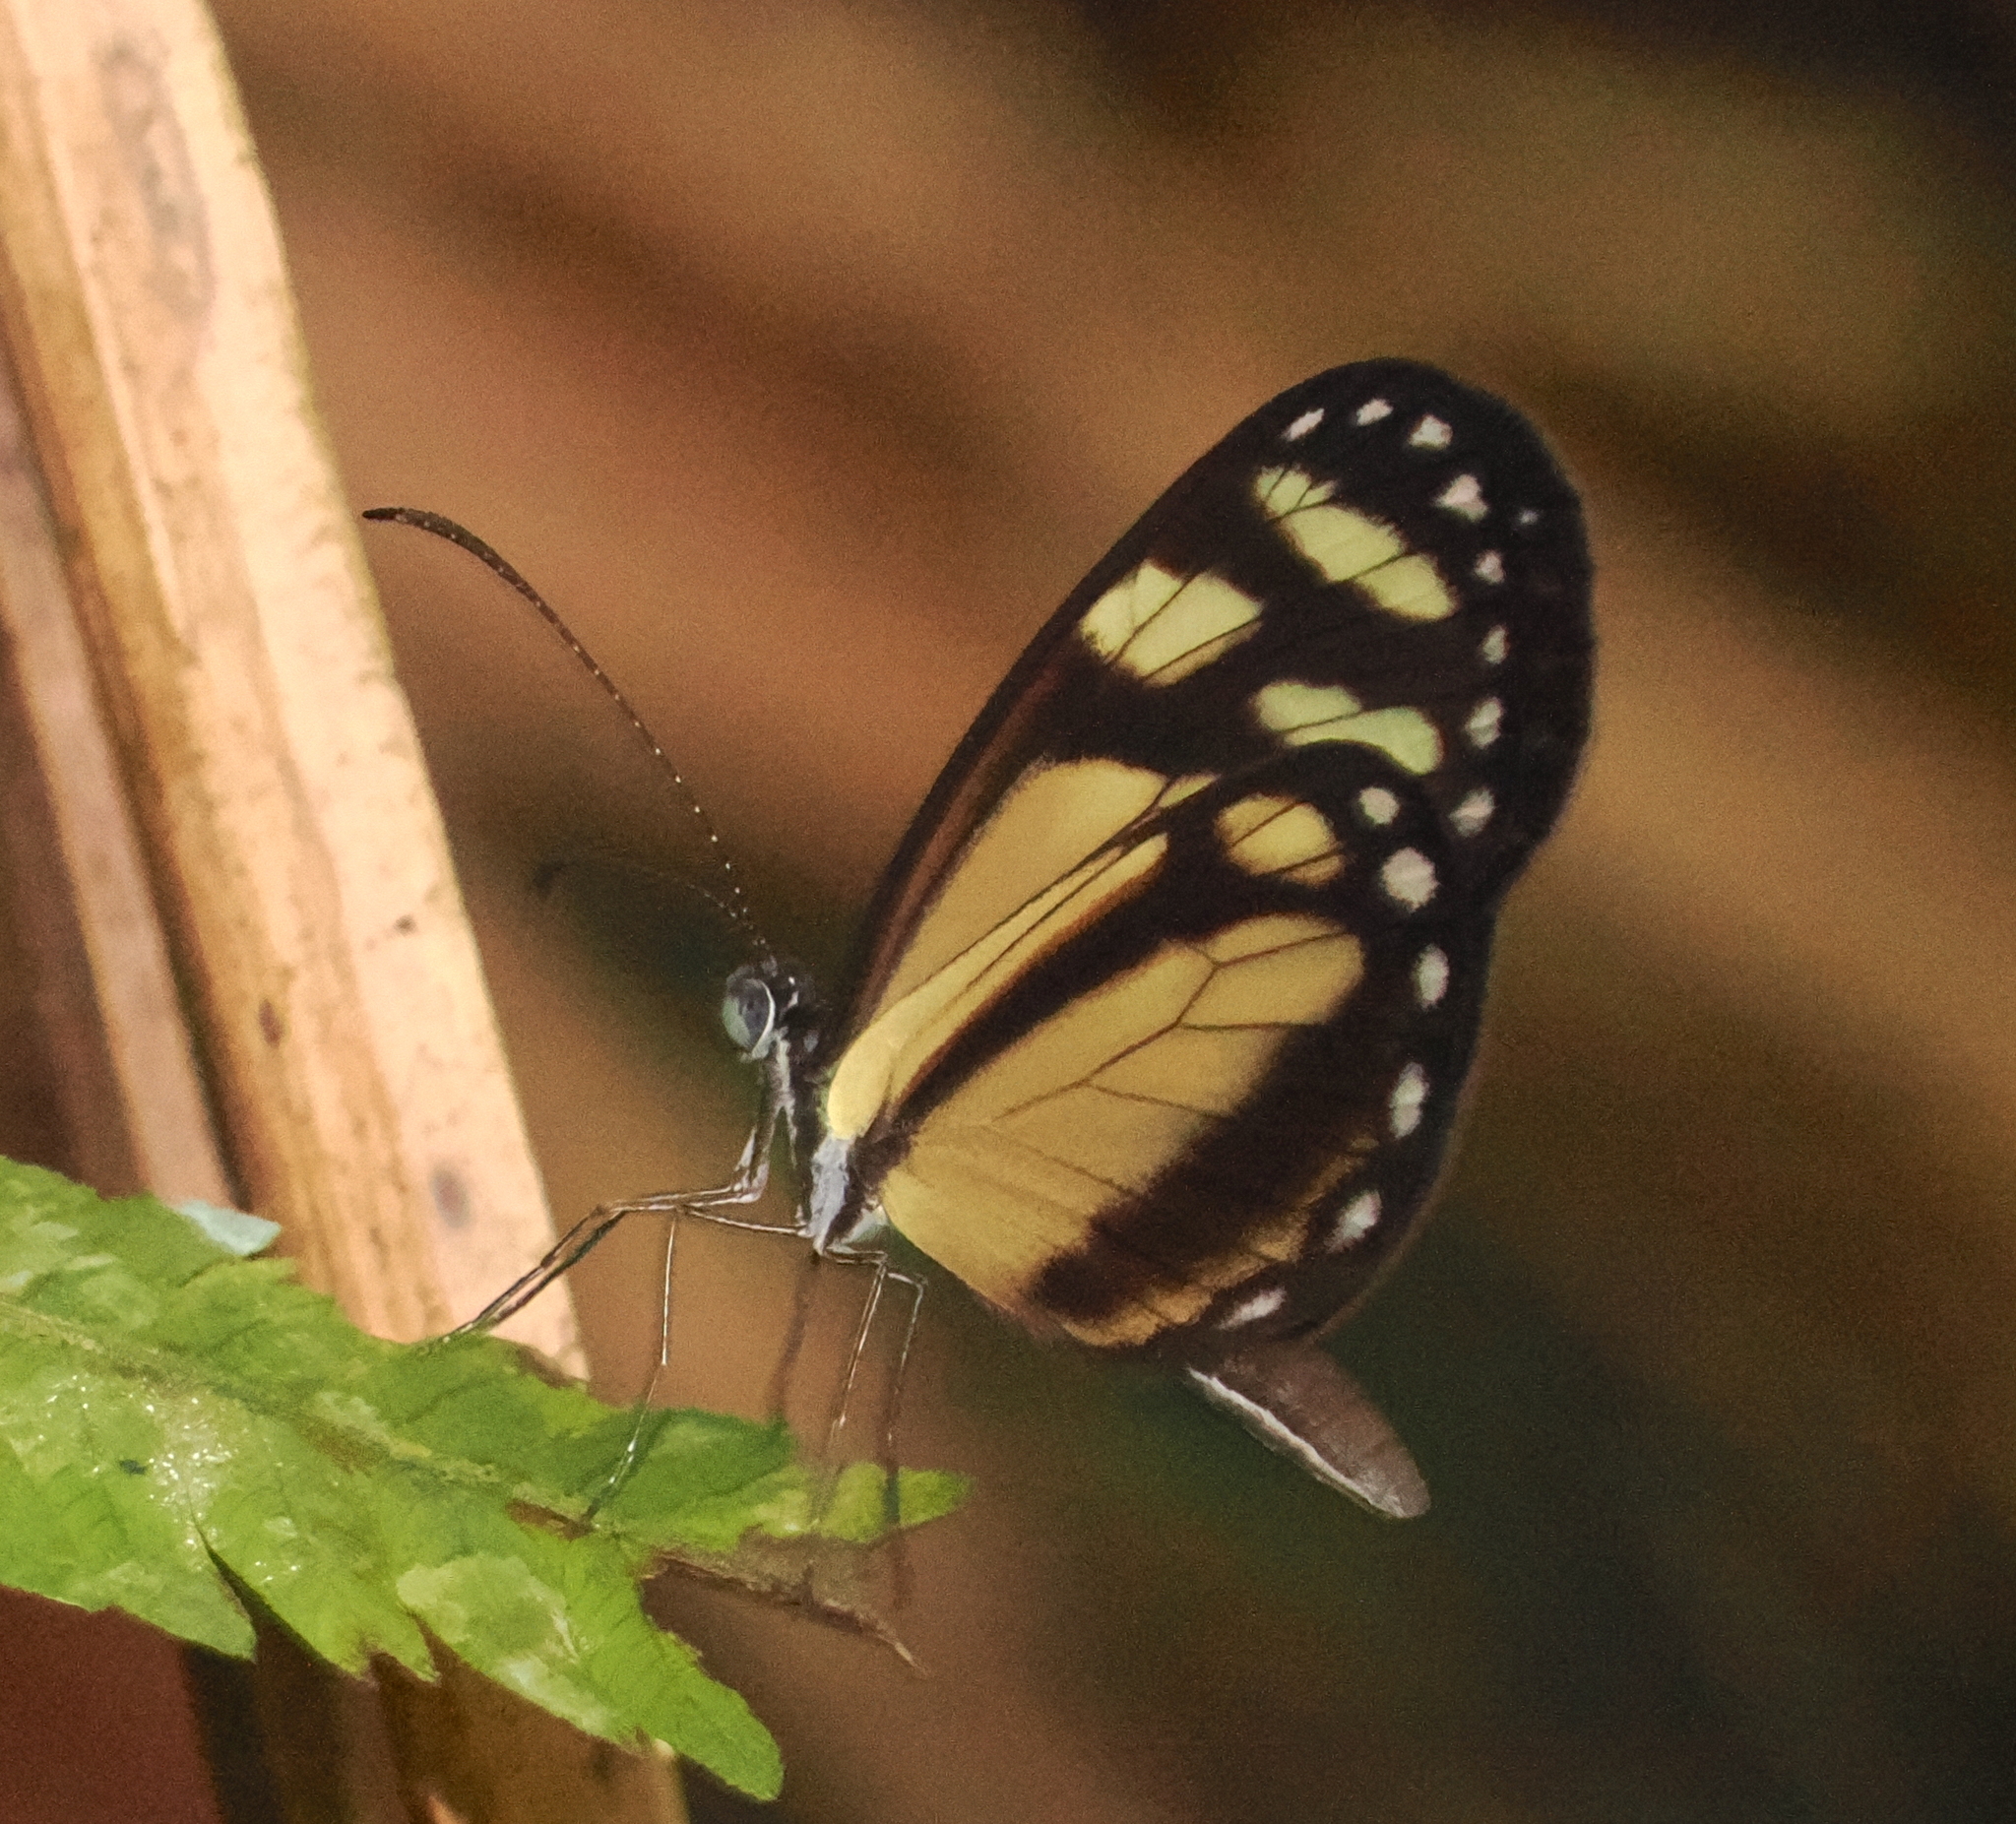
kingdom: Animalia
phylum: Arthropoda
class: Insecta
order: Lepidoptera
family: Pieridae
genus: Dismorphia
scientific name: Dismorphia theucharila
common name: Clearwing mimic-white
